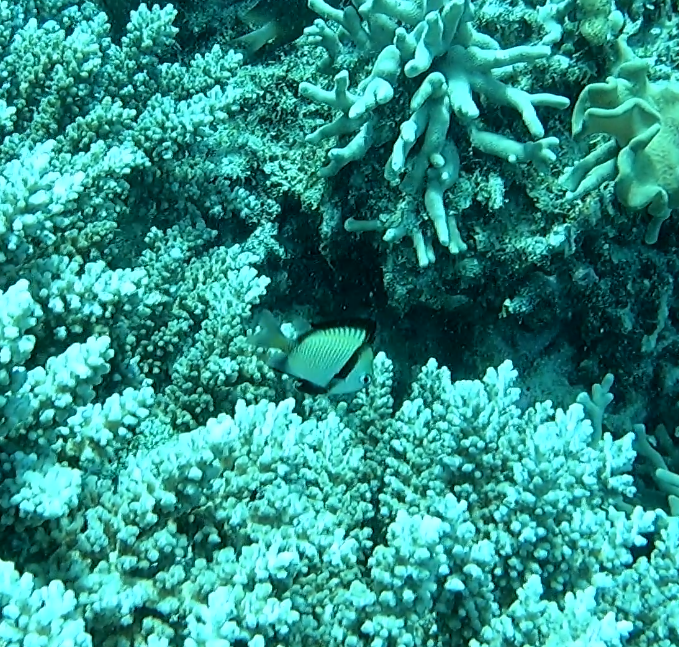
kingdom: Animalia
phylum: Chordata
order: Perciformes
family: Pomacentridae
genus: Dascyllus
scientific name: Dascyllus reticulatus
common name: Reticulated dascyllus
